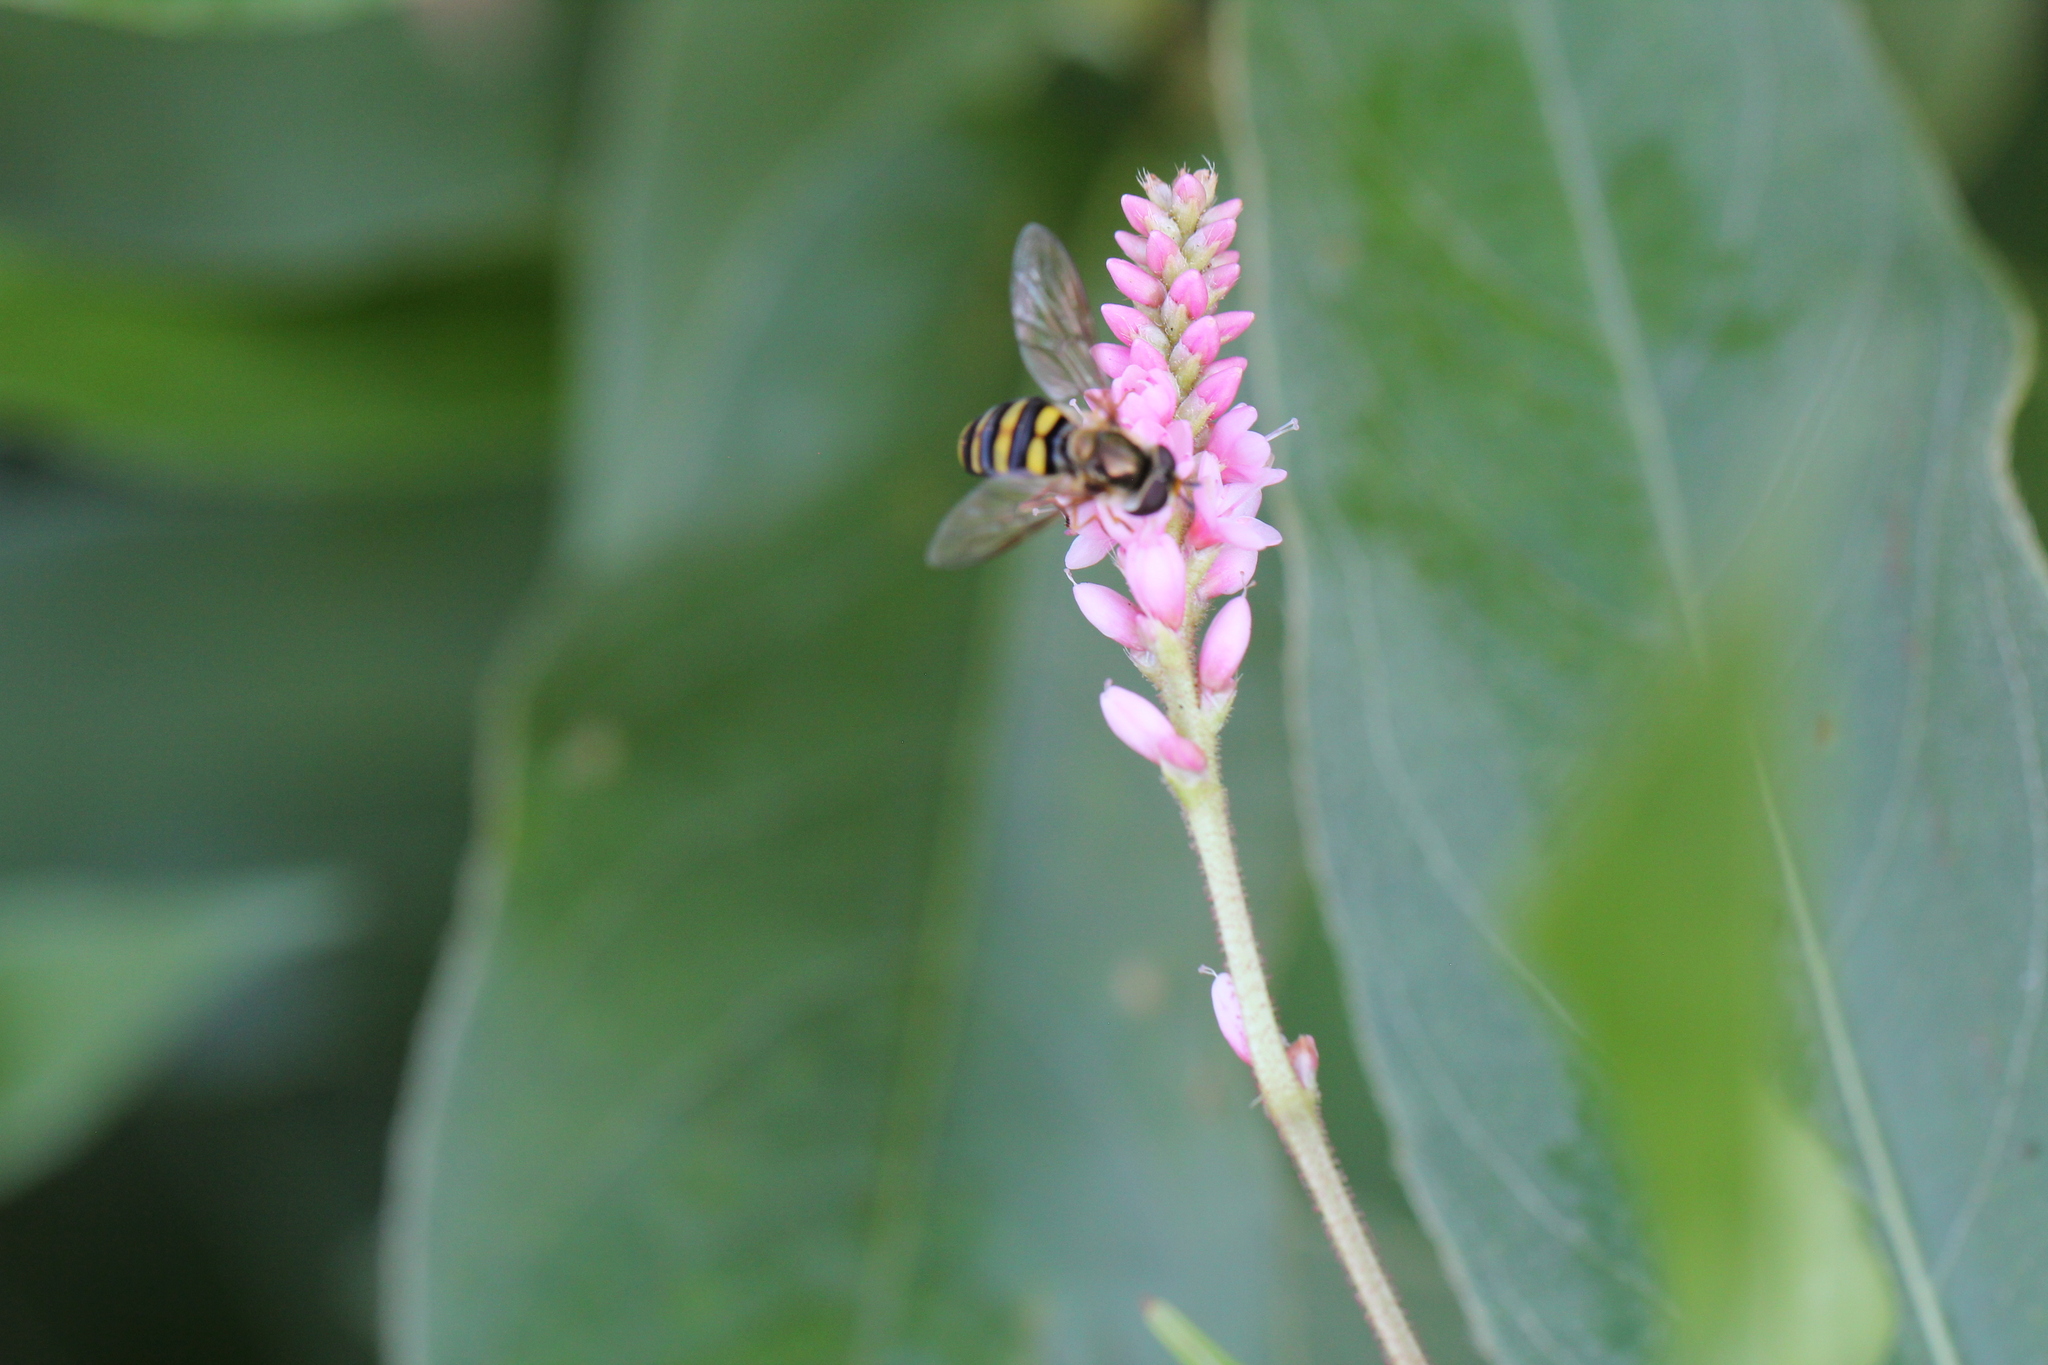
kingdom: Animalia
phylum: Arthropoda
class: Insecta
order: Diptera
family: Syrphidae
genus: Eupeodes
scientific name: Eupeodes
